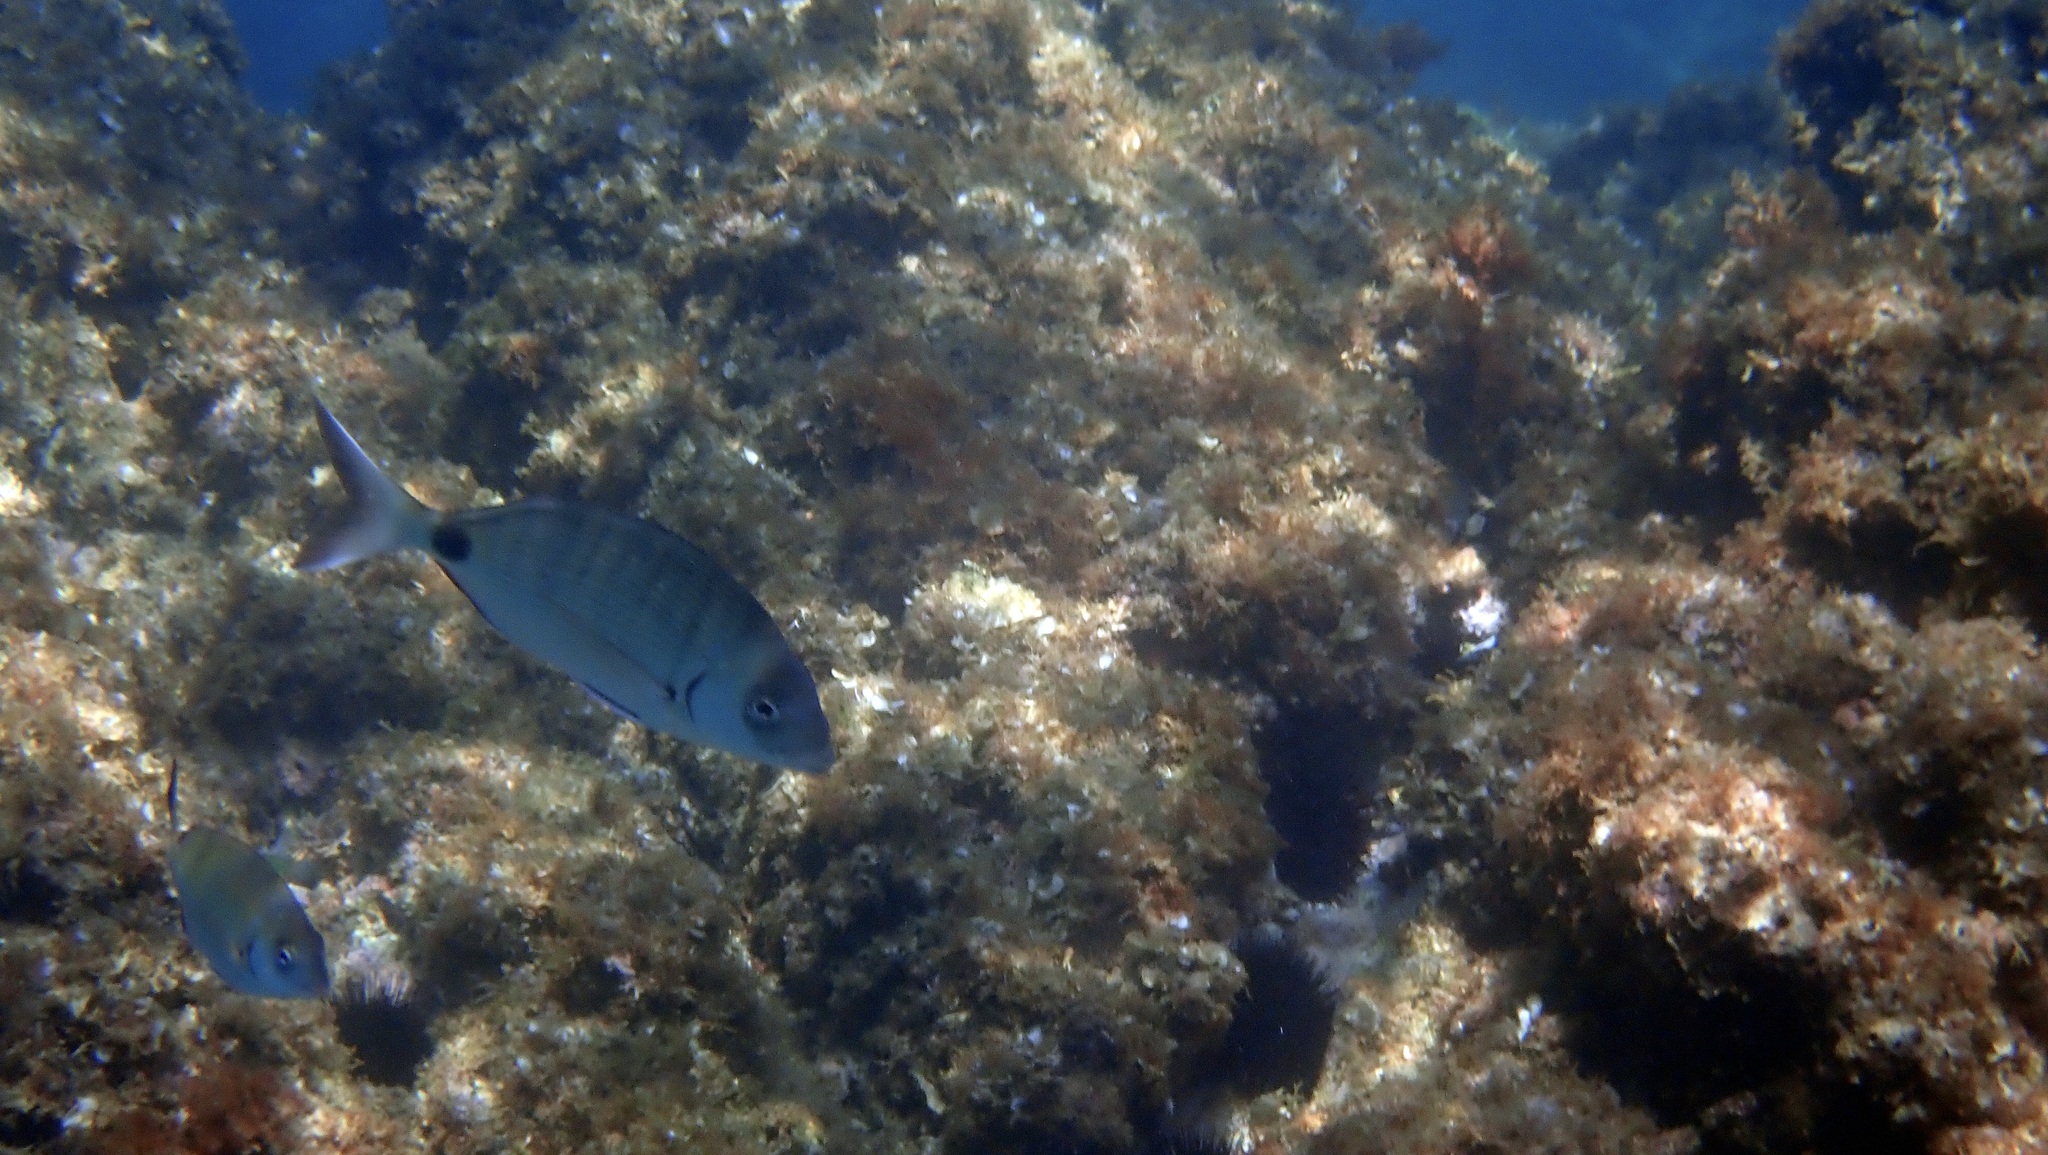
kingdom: Animalia
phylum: Chordata
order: Perciformes
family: Sparidae
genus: Diplodus
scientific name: Diplodus sargus
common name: White seabream
